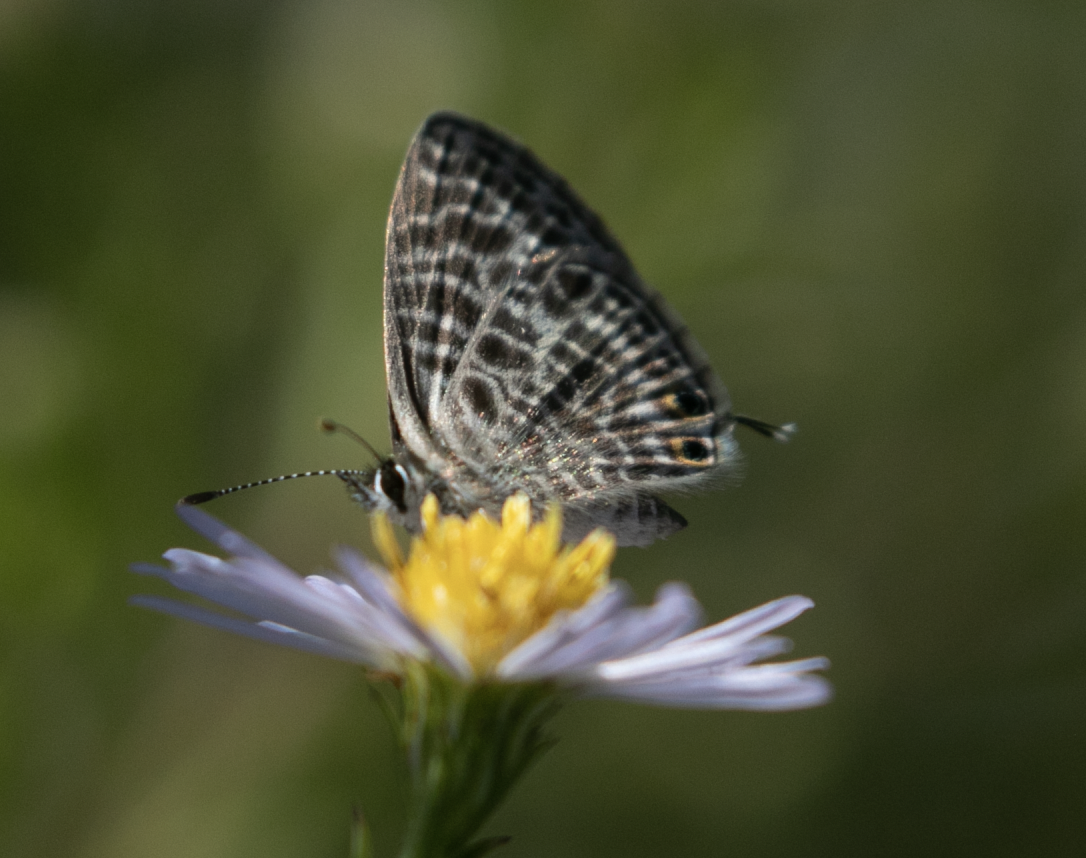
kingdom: Animalia
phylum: Arthropoda
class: Insecta
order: Lepidoptera
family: Lycaenidae
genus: Leptotes
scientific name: Leptotes pirithous
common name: Lang's short-tailed blue
